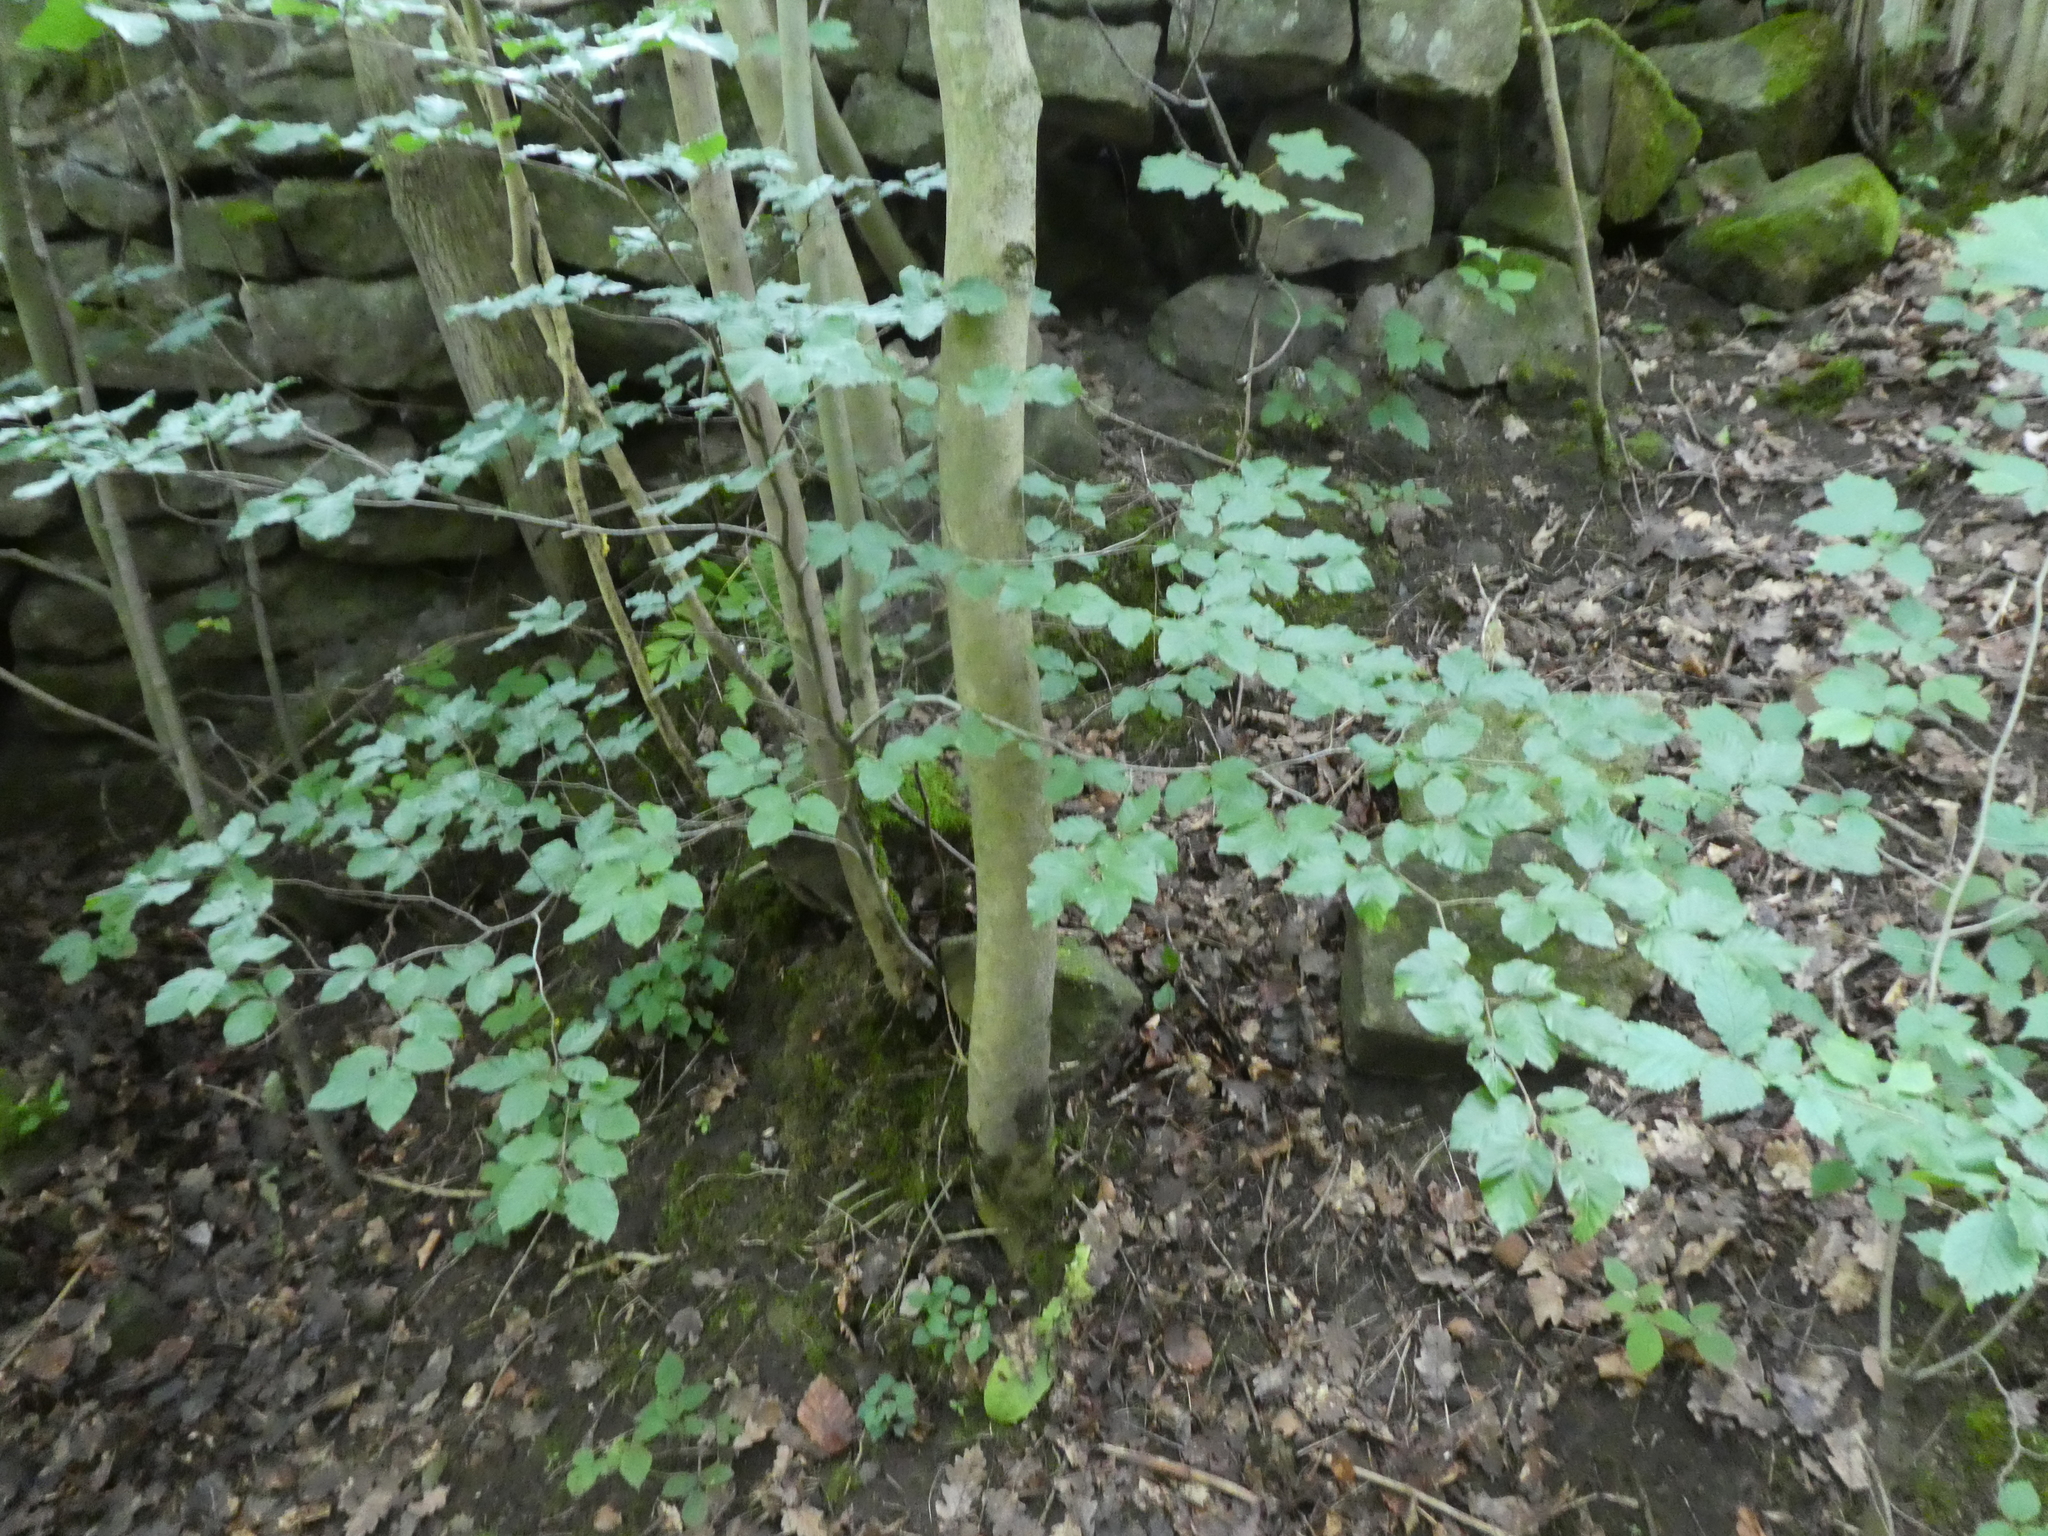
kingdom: Plantae
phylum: Tracheophyta
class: Magnoliopsida
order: Fagales
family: Fagaceae
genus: Fagus
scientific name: Fagus sylvatica
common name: Beech
